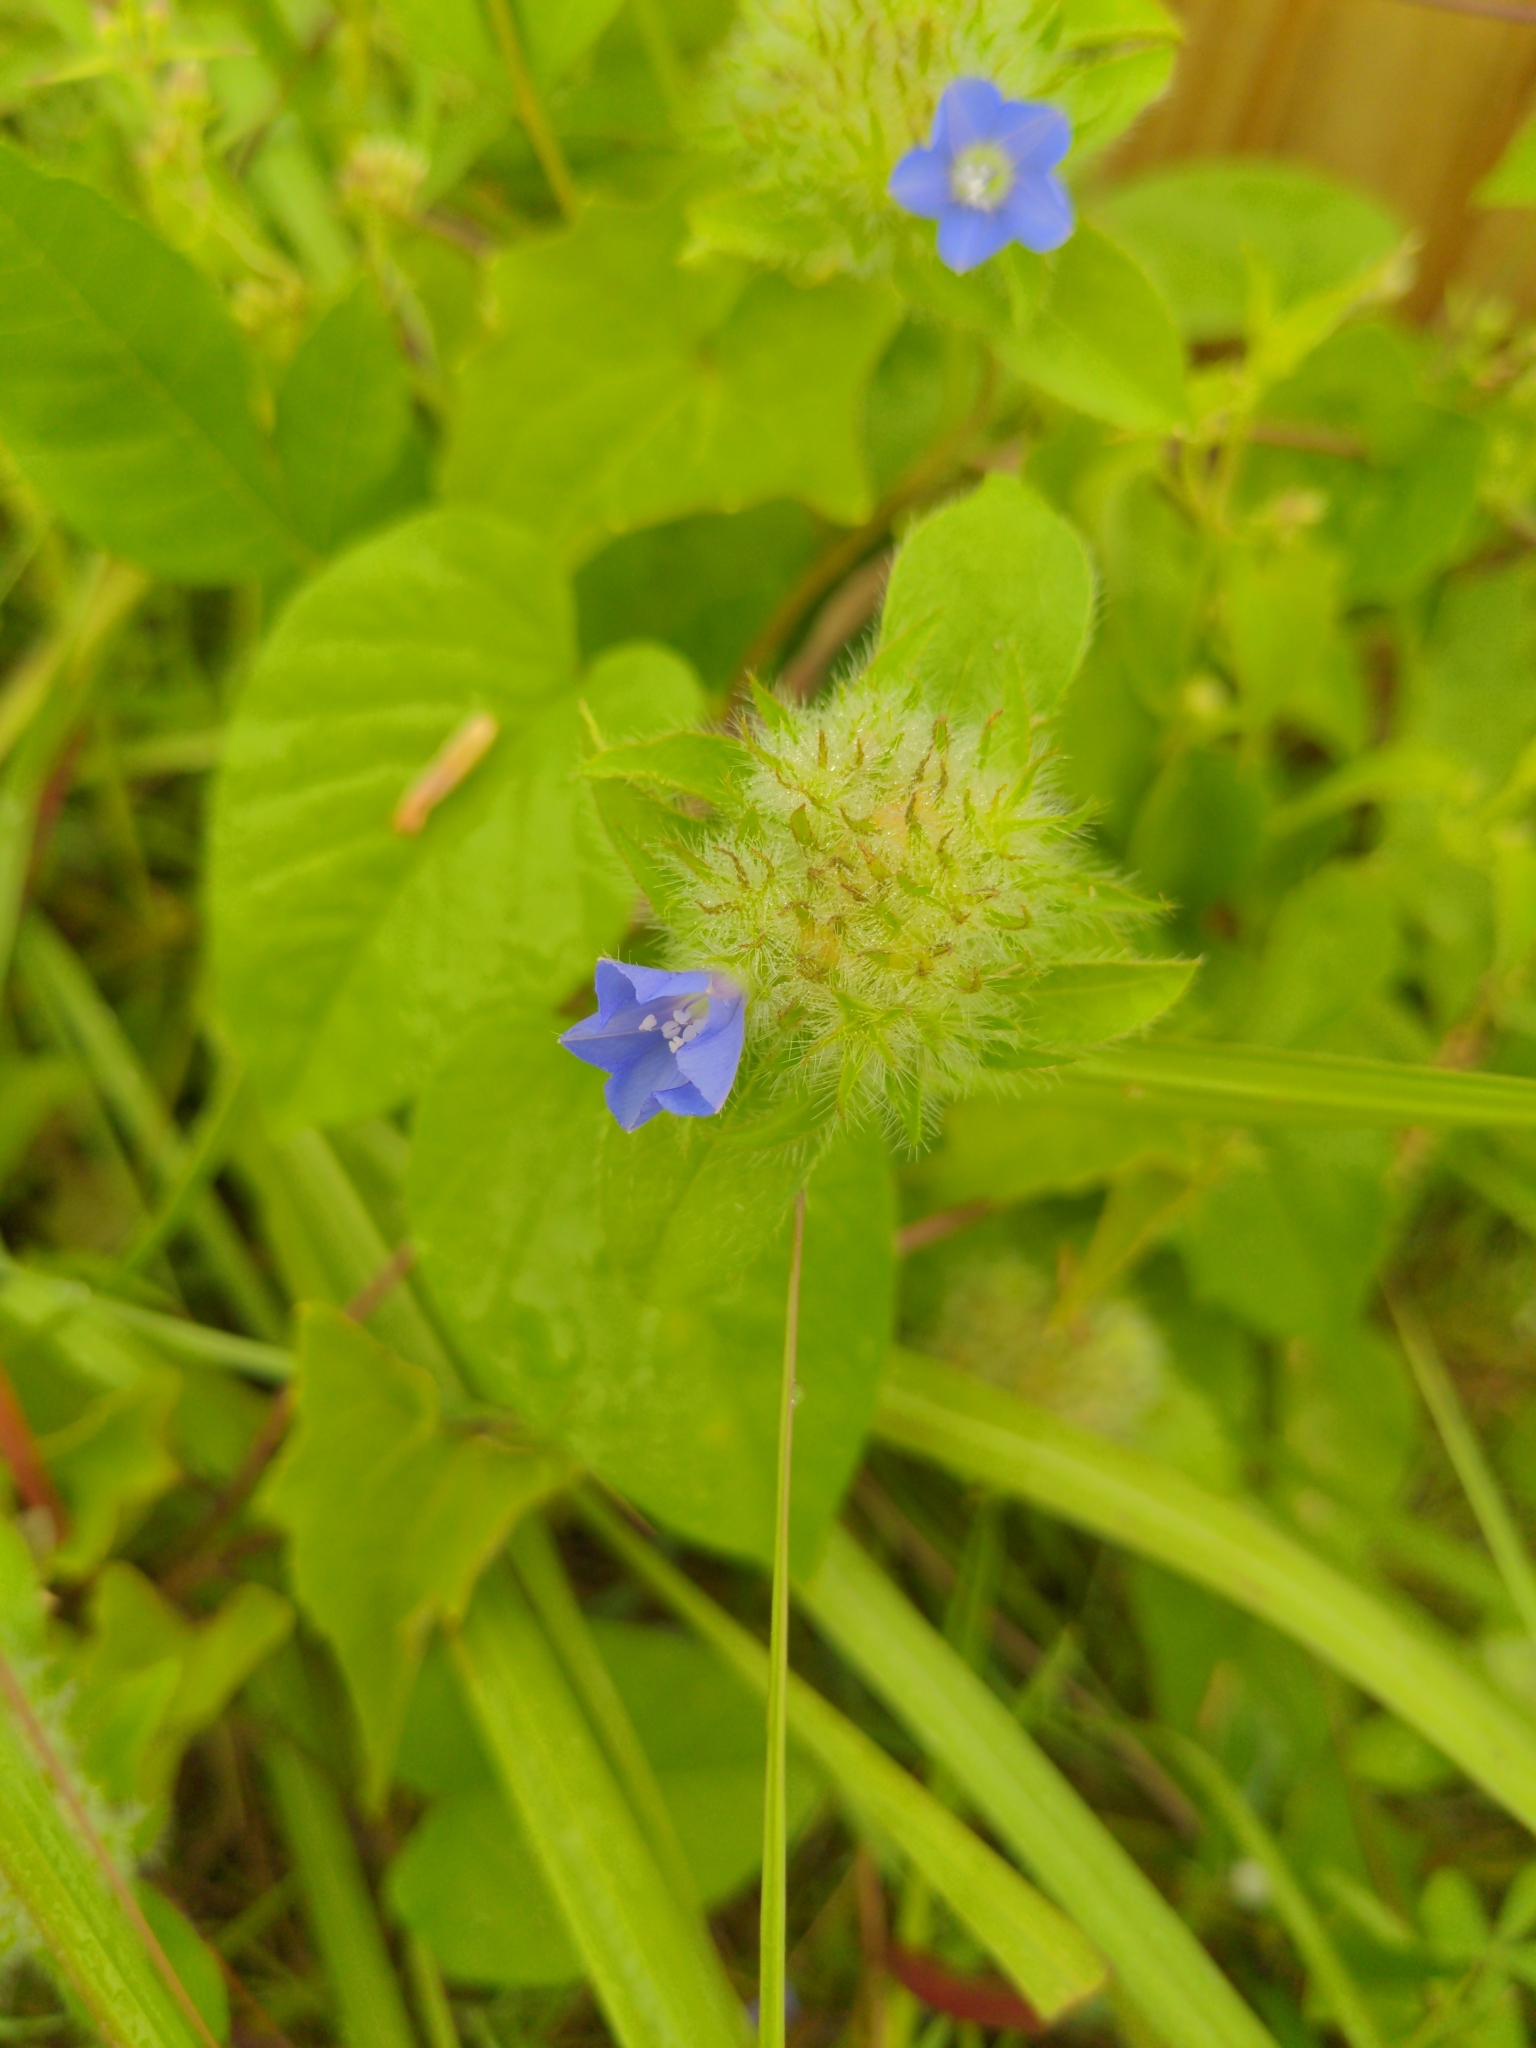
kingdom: Plantae
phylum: Tracheophyta
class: Magnoliopsida
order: Solanales
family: Convolvulaceae
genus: Jacquemontia
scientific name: Jacquemontia tamnifolia
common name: Hairy clustervine
